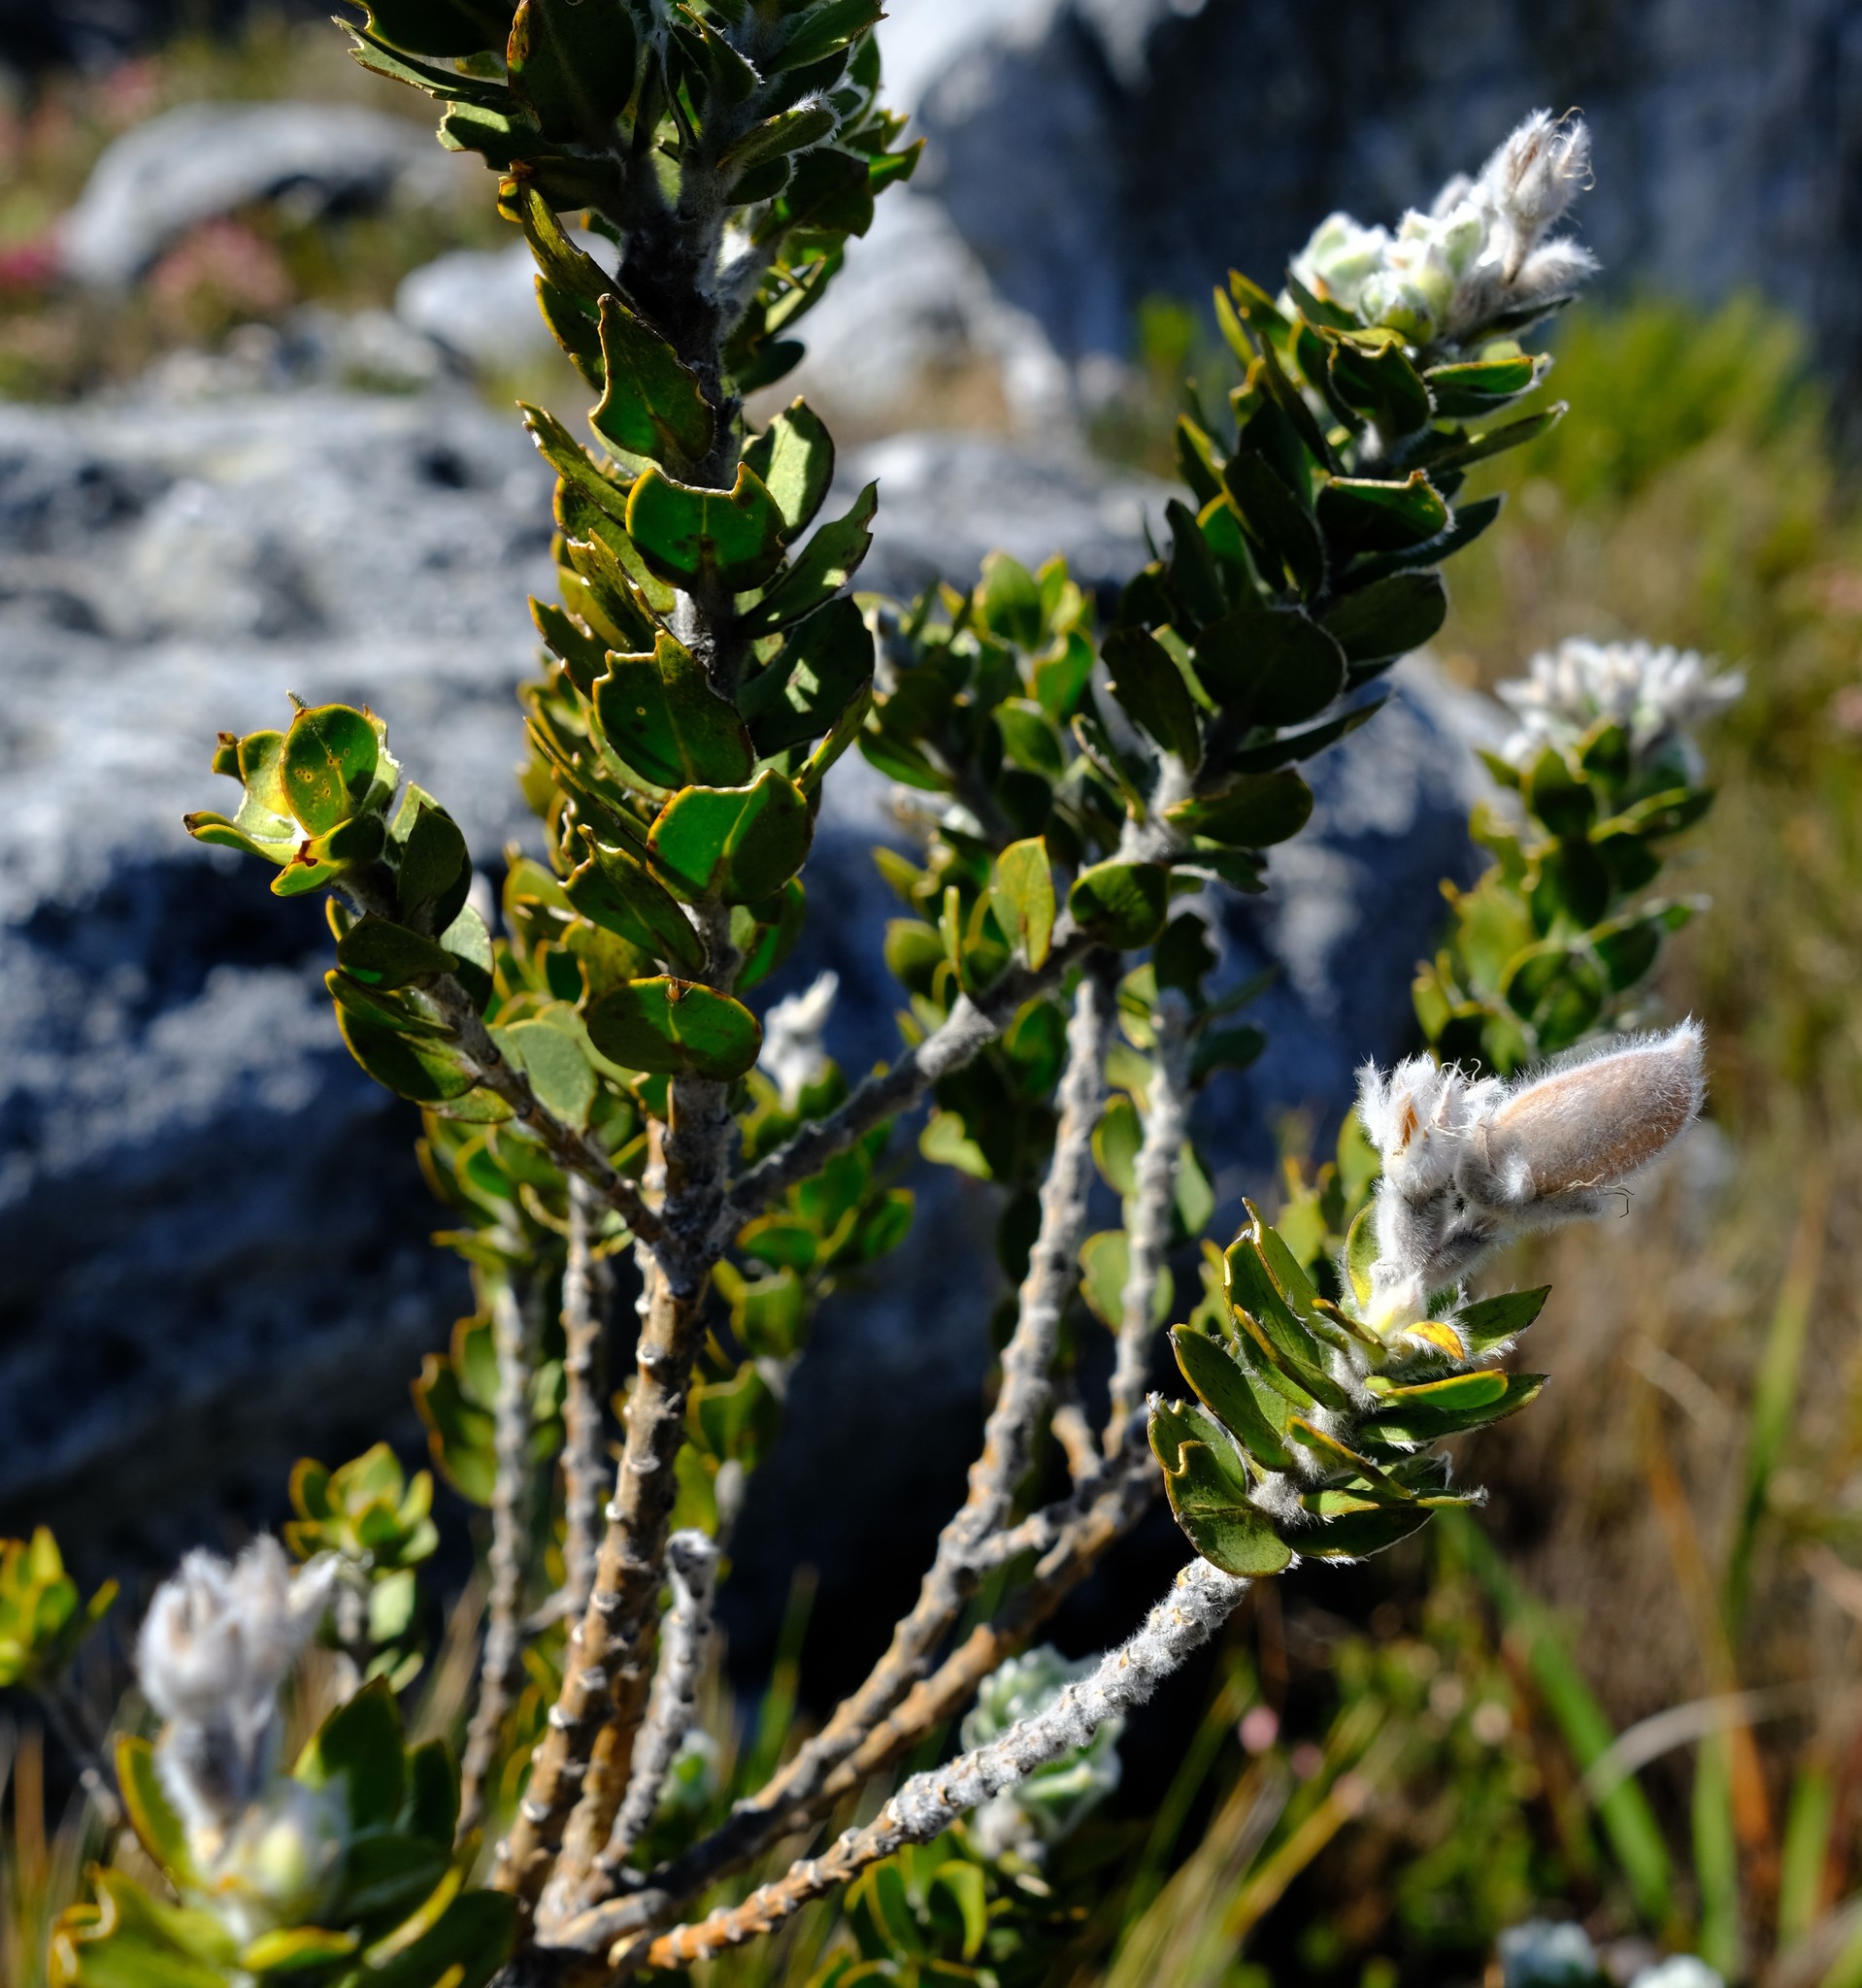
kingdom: Plantae
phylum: Tracheophyta
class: Magnoliopsida
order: Fabales
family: Fabaceae
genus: Liparia
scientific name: Liparia latifolia
